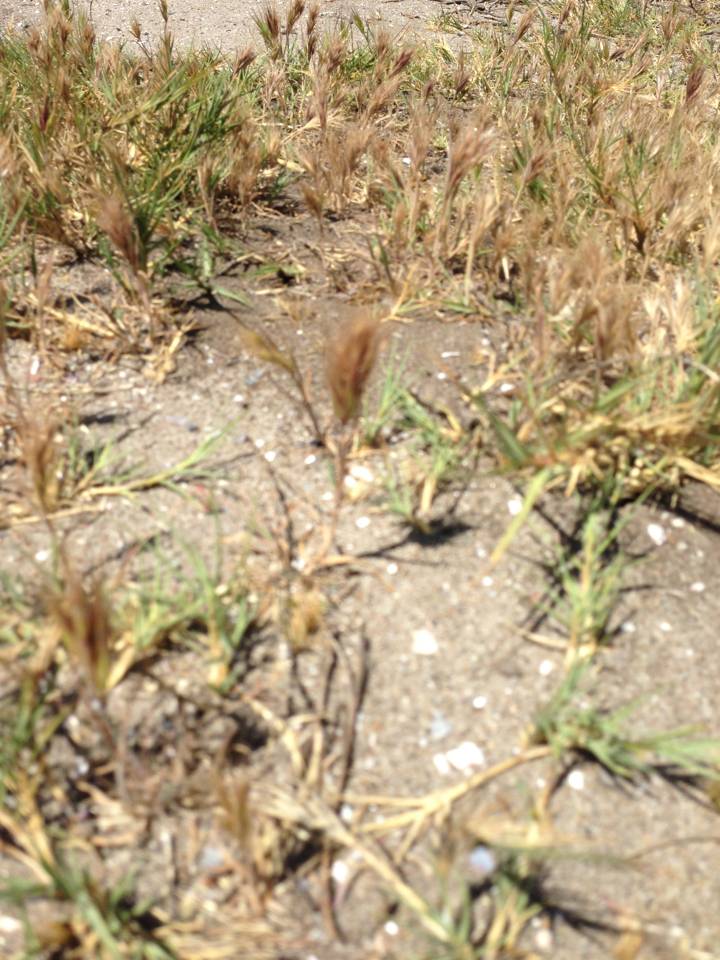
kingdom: Plantae
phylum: Tracheophyta
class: Liliopsida
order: Poales
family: Poaceae
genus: Bromus
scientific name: Bromus madritensis
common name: Compact brome
